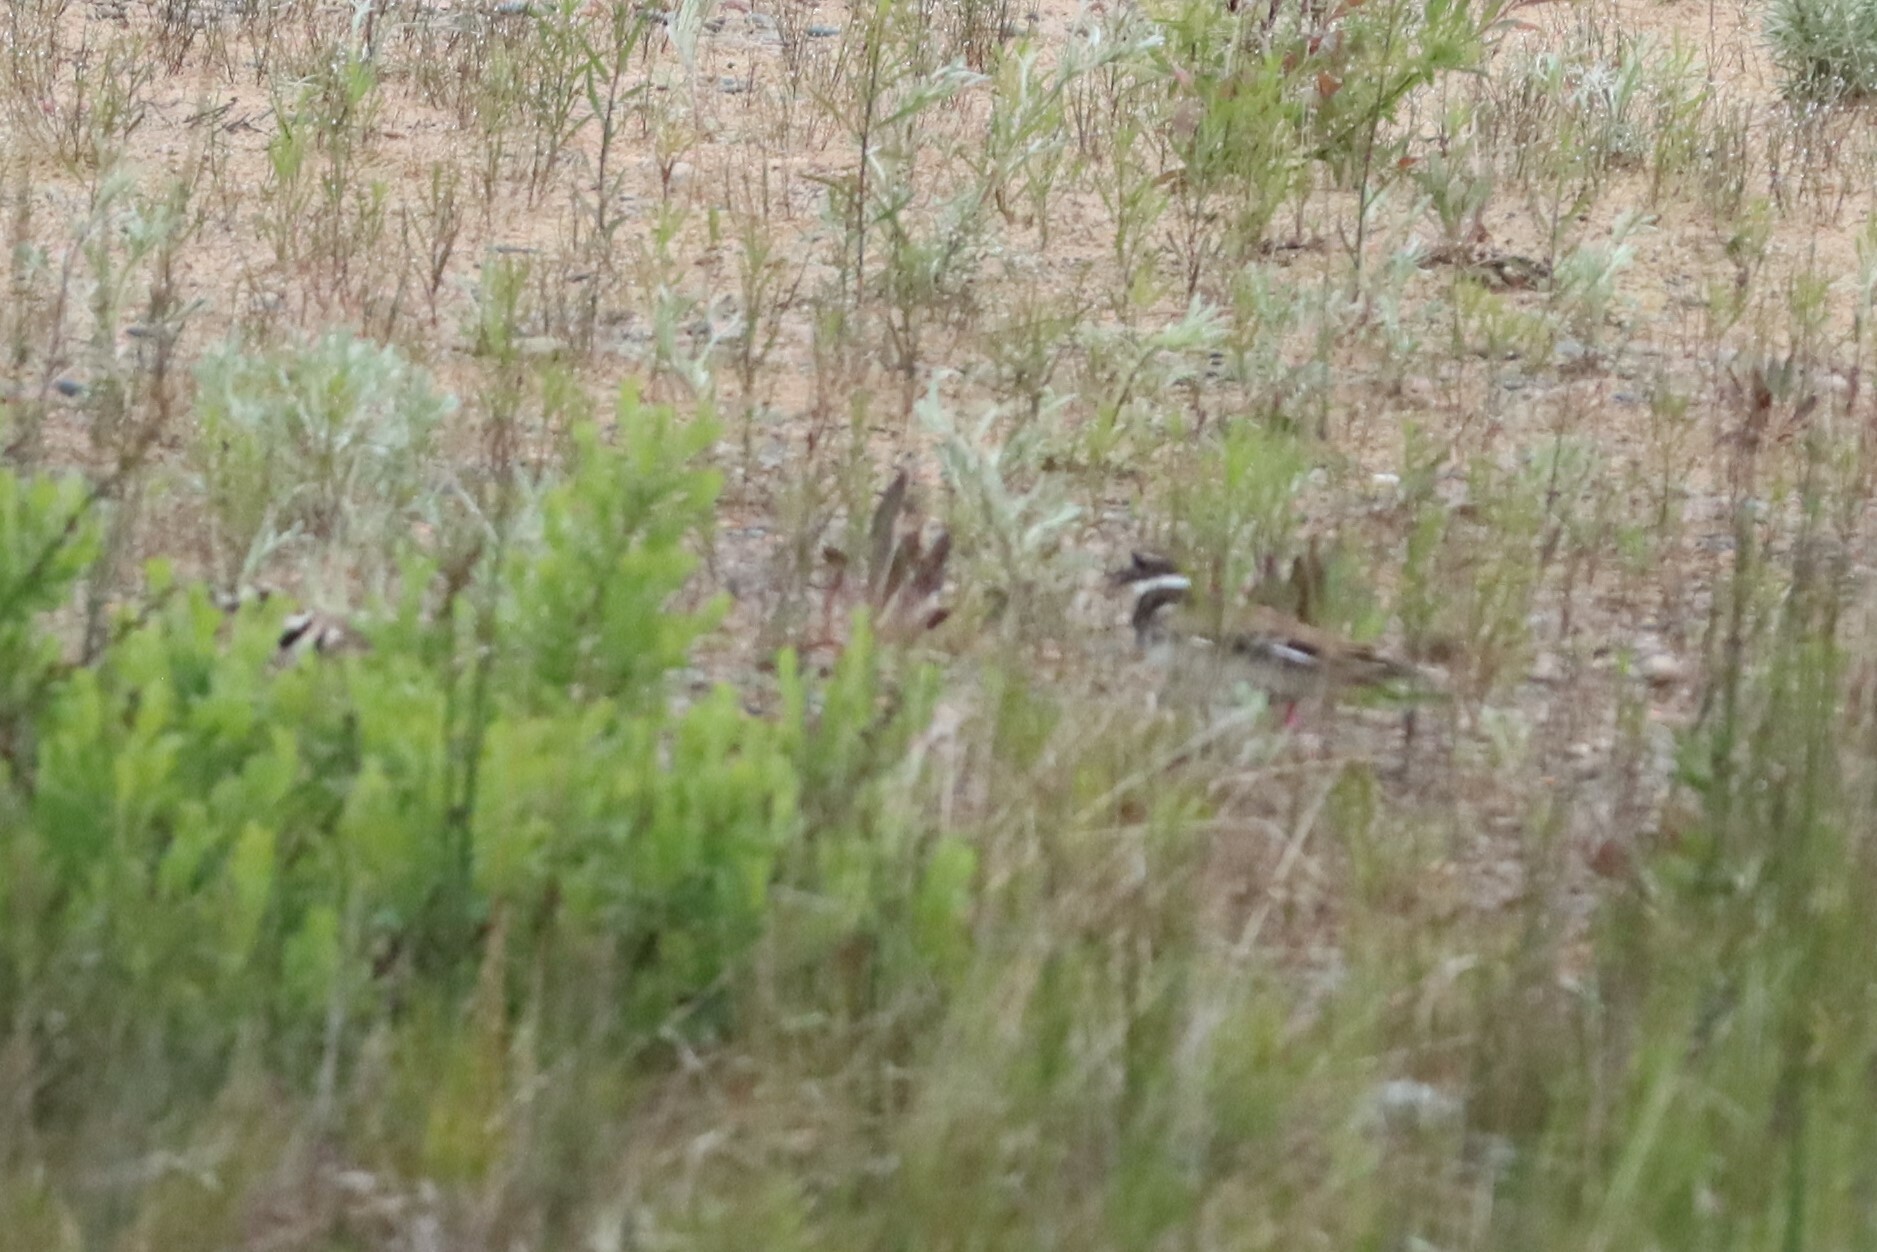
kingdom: Animalia
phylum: Chordata
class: Aves
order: Charadriiformes
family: Charadriidae
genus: Charadrius
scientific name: Charadrius vociferus
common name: Killdeer
